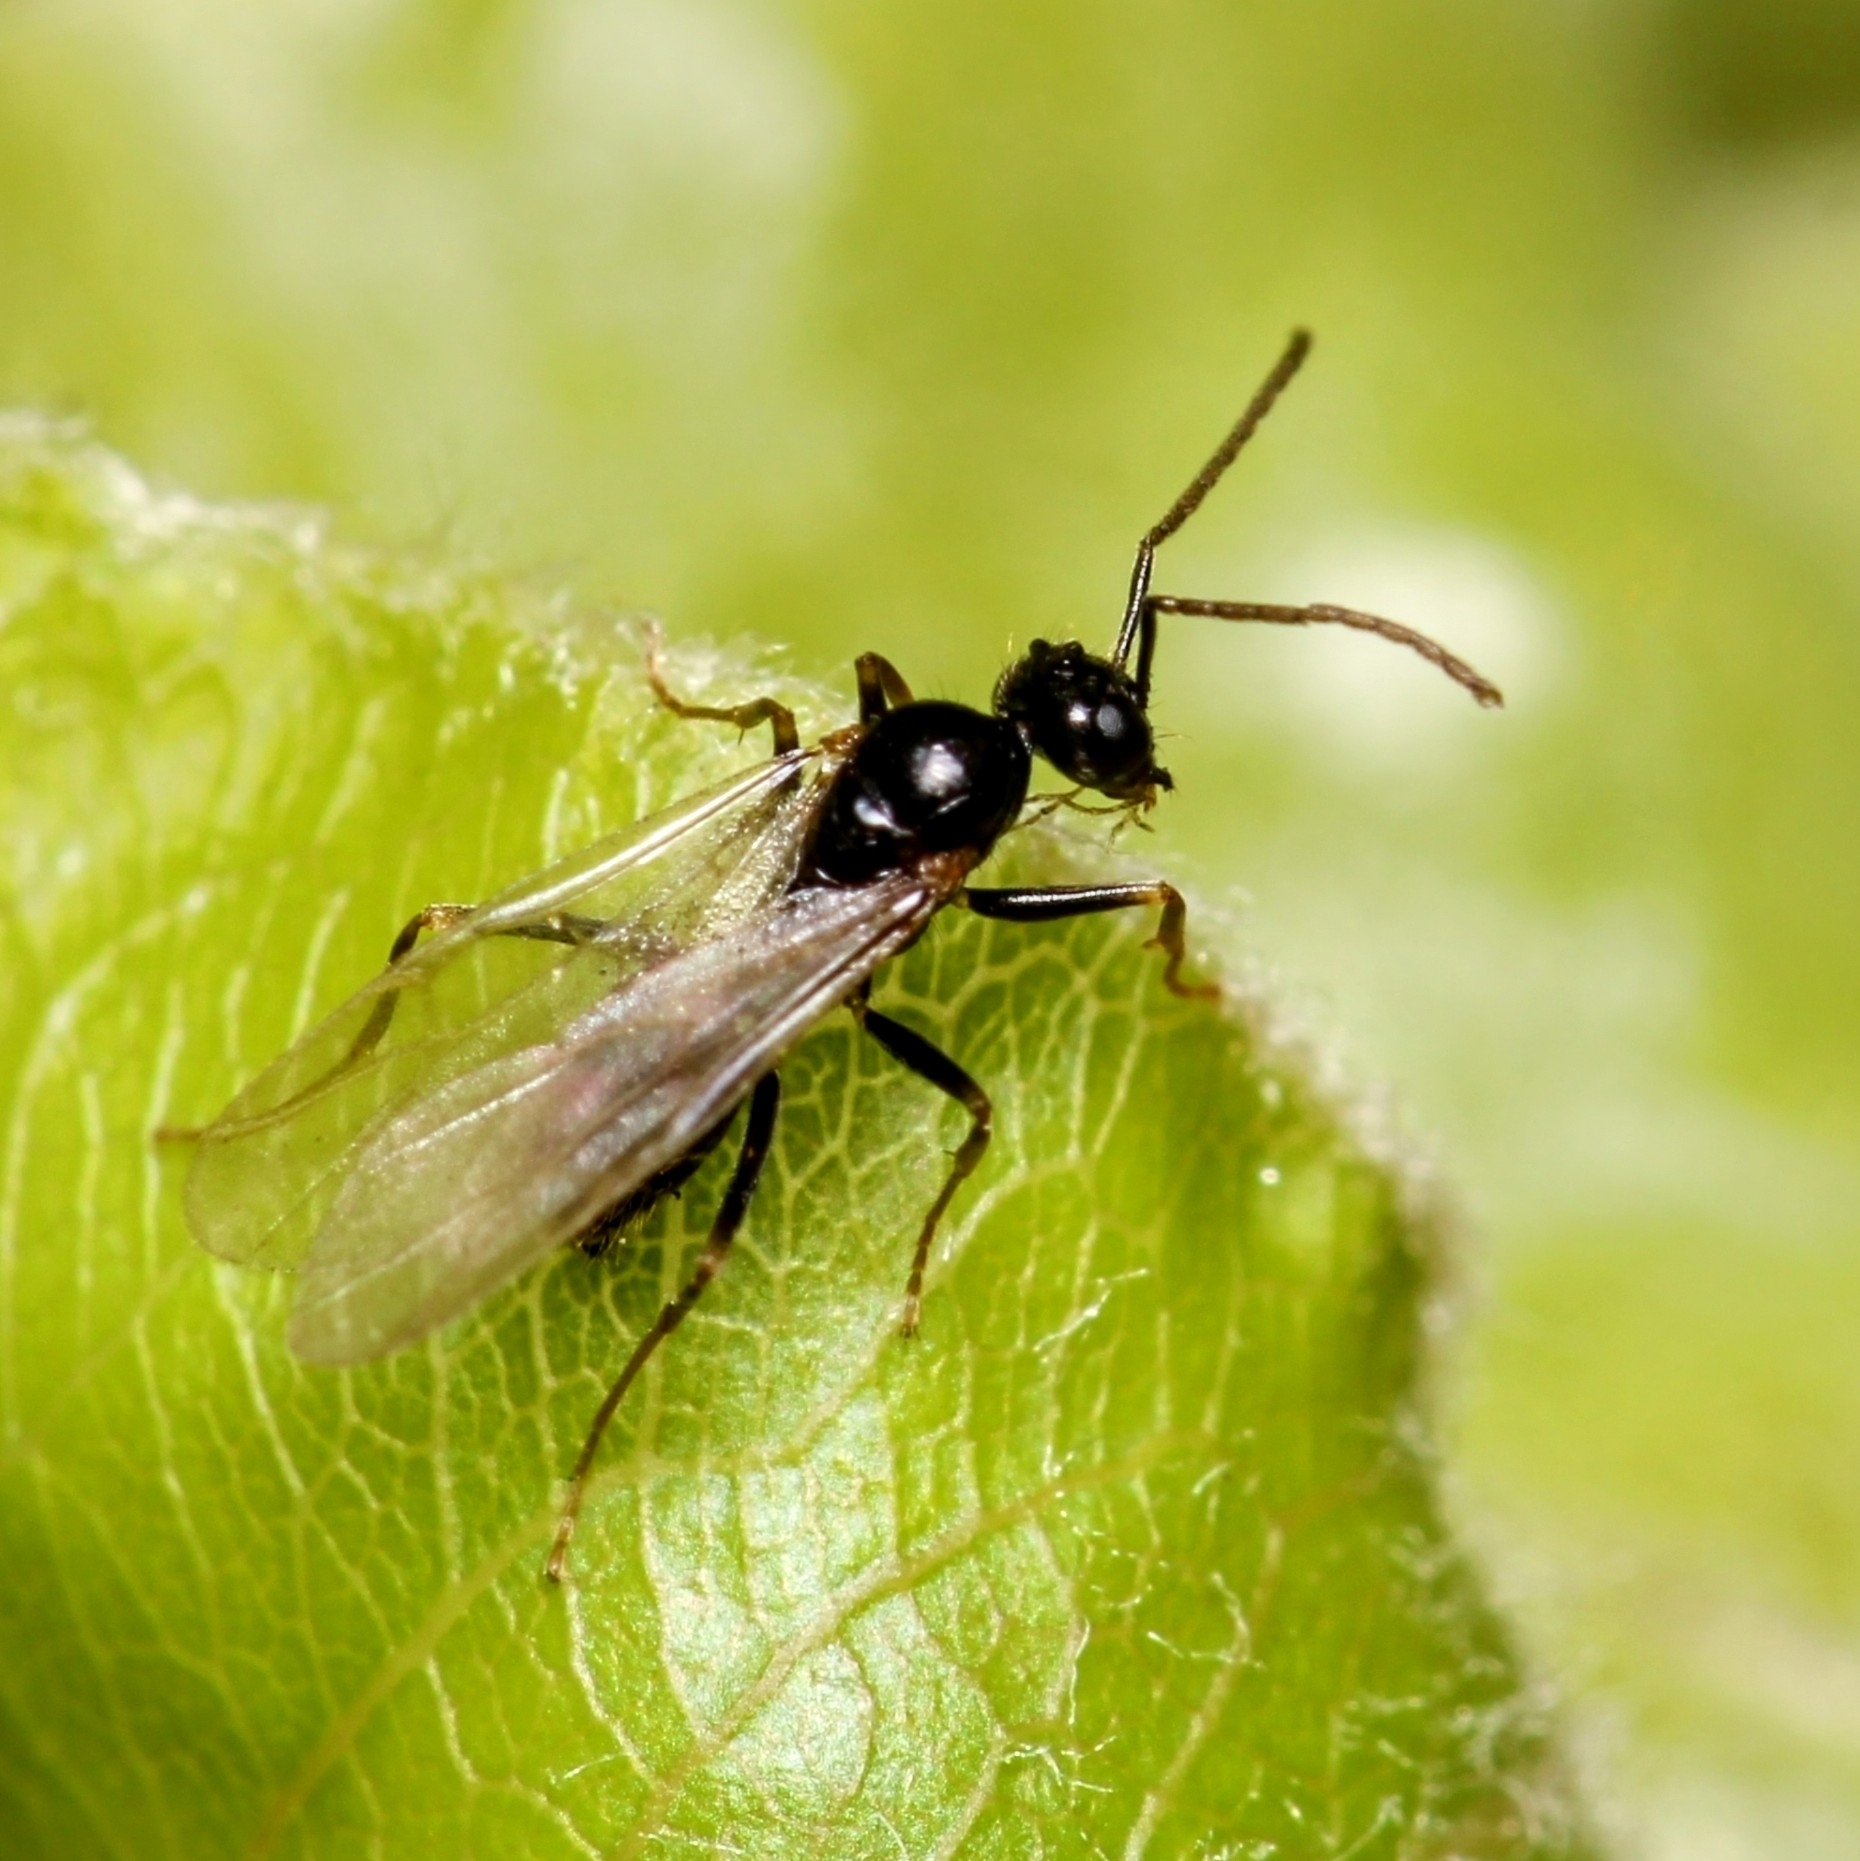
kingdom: Animalia
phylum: Arthropoda
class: Insecta
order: Hymenoptera
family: Formicidae
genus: Prenolepis
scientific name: Prenolepis imparis
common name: Small honey ant
